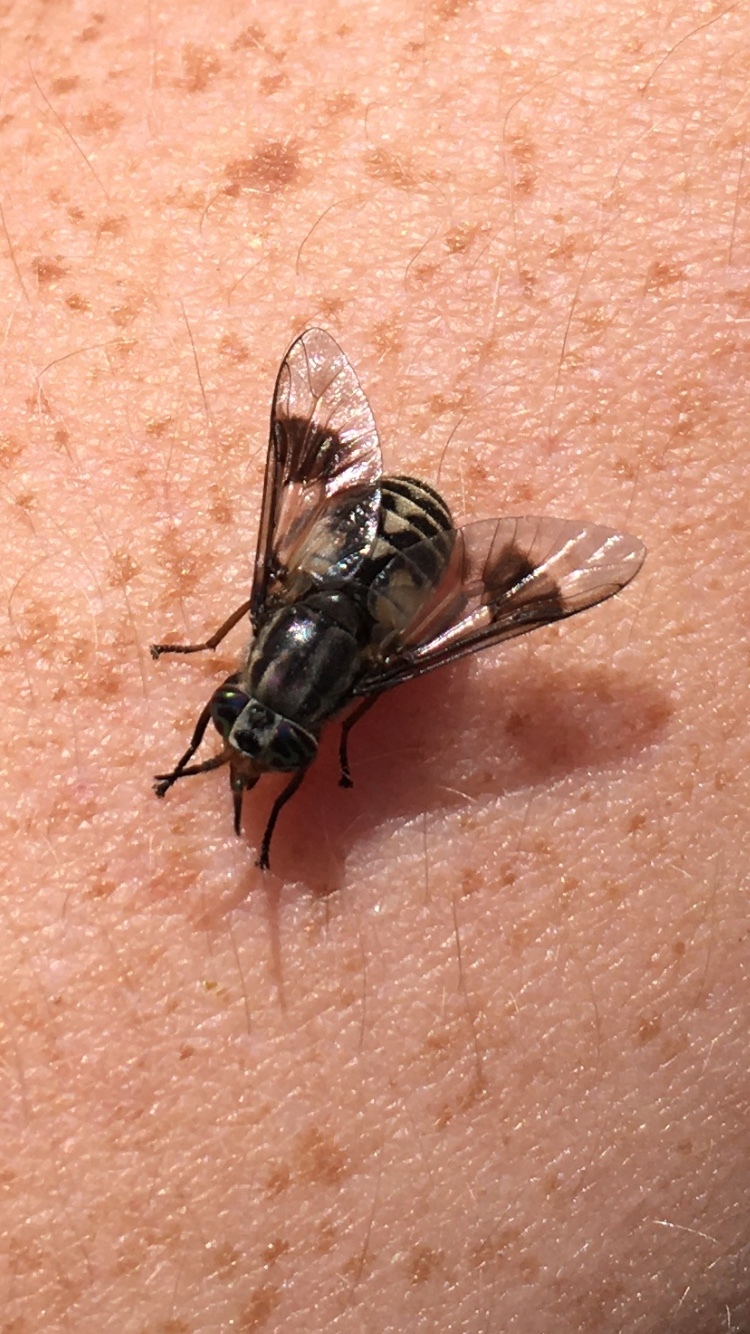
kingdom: Animalia
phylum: Arthropoda
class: Insecta
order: Diptera
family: Tabanidae
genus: Chrysops
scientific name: Chrysops aestuans
